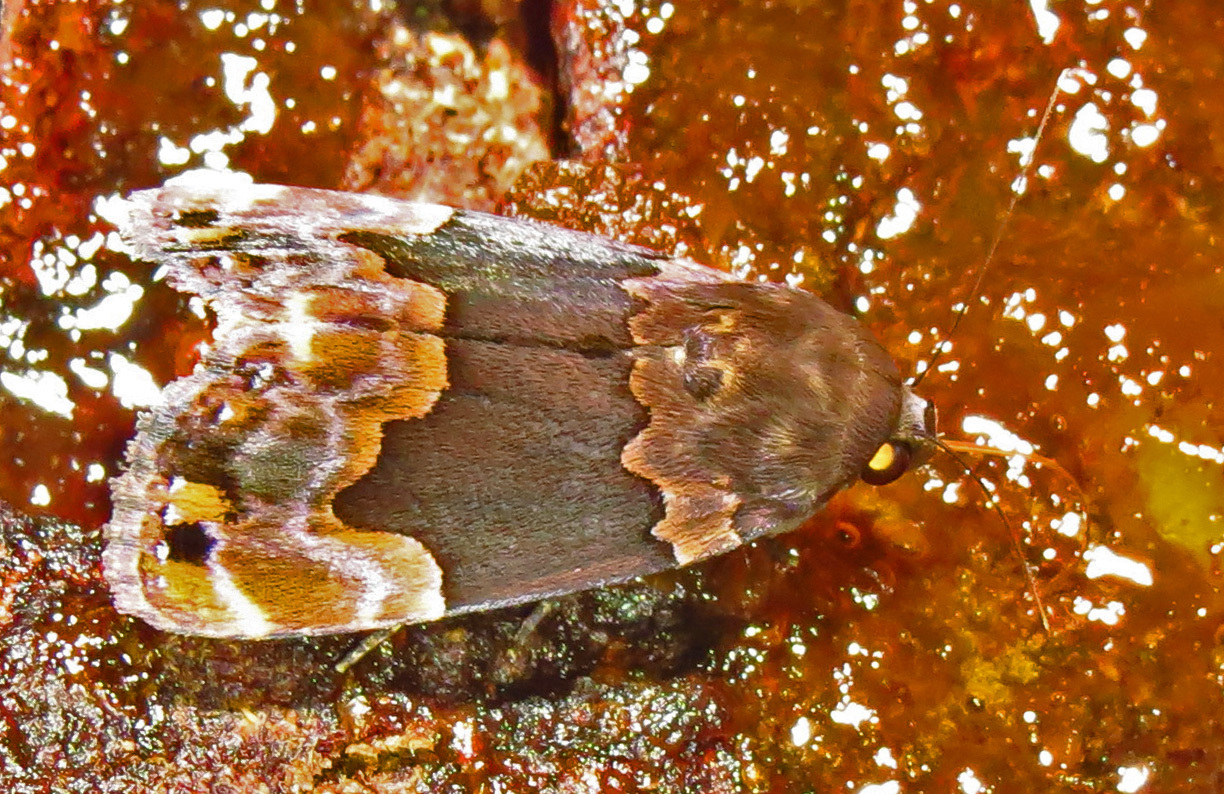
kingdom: Animalia
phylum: Arthropoda
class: Insecta
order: Lepidoptera
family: Erebidae
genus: Dinumma
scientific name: Dinumma deponens
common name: Purplish moth
